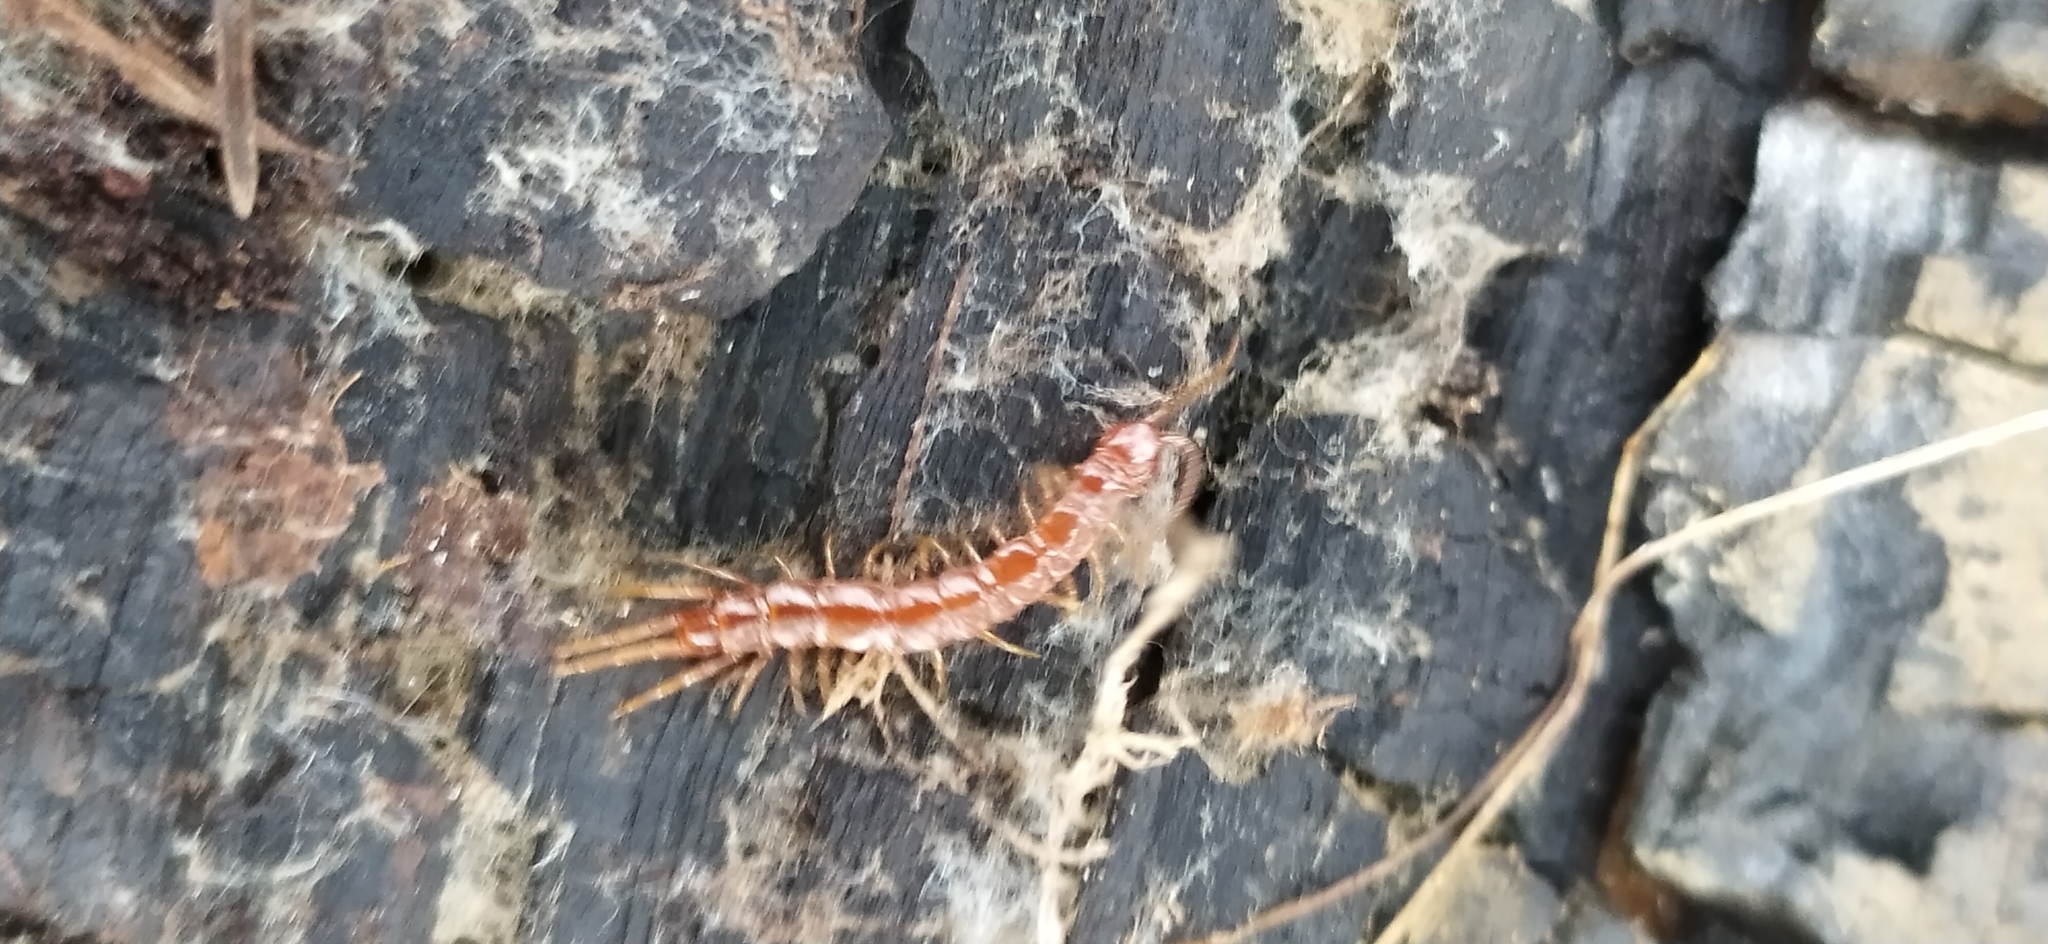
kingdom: Animalia
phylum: Arthropoda
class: Chilopoda
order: Lithobiomorpha
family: Lithobiidae
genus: Lithobius
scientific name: Lithobius forficatus
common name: Centipede
